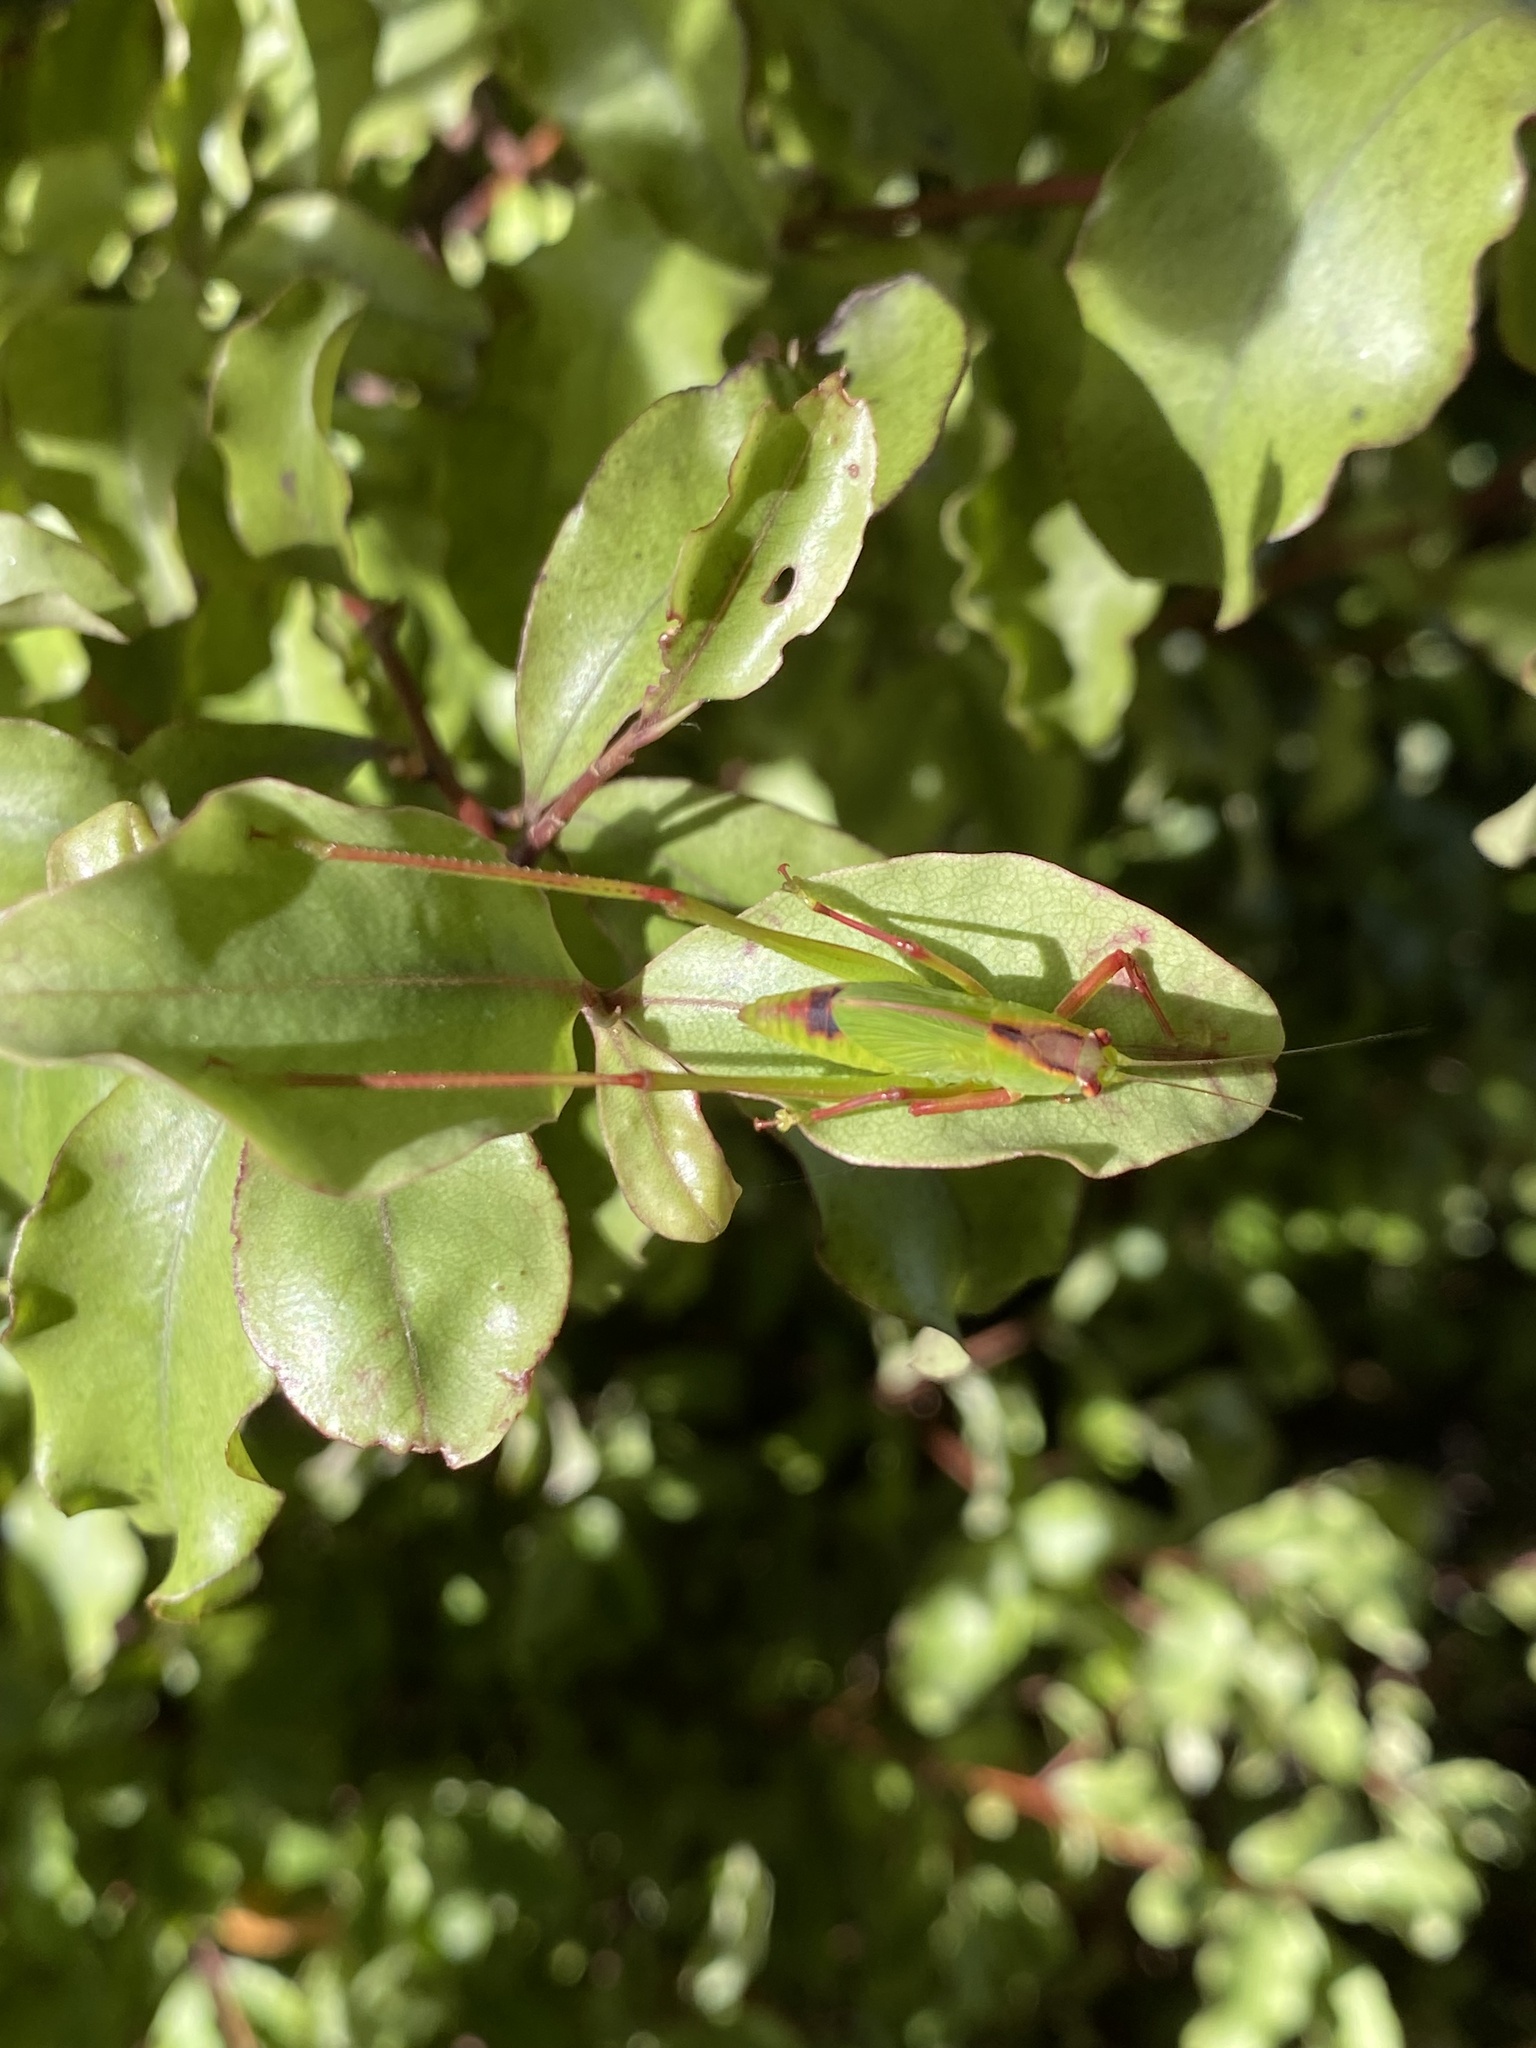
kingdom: Animalia
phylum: Arthropoda
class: Insecta
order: Orthoptera
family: Tettigoniidae
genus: Caedicia
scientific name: Caedicia simplex
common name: Common garden katydid
